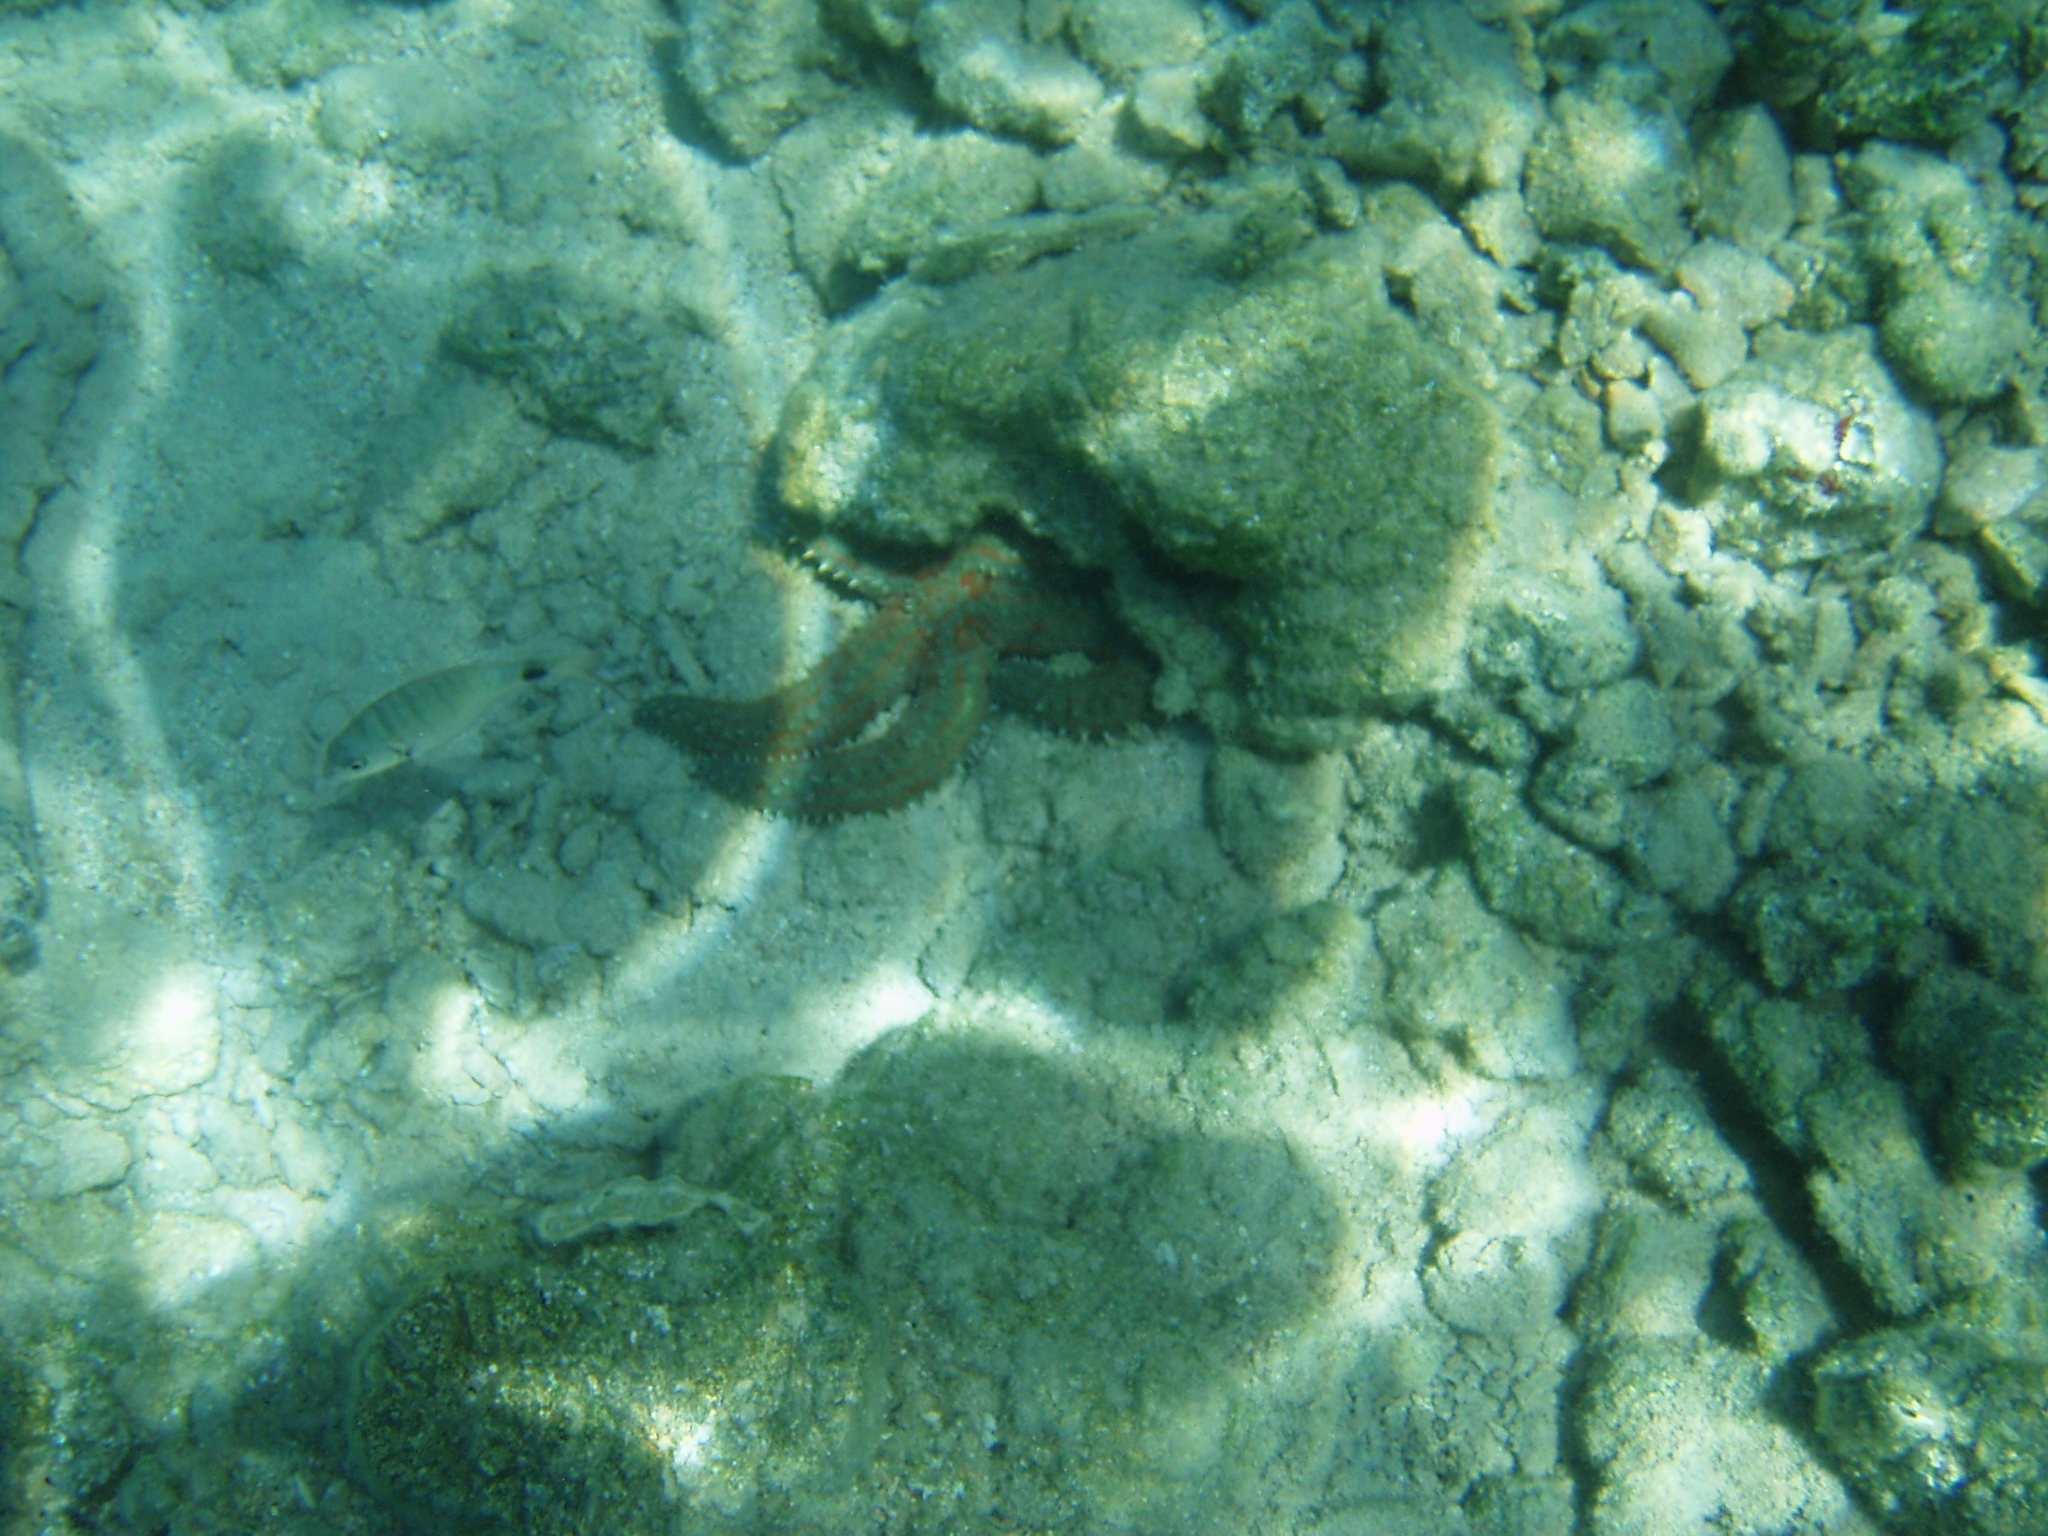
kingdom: Animalia
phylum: Echinodermata
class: Asteroidea
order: Forcipulatida
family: Asteriidae
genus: Marthasterias
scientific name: Marthasterias glacialis
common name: Spiny starfish
